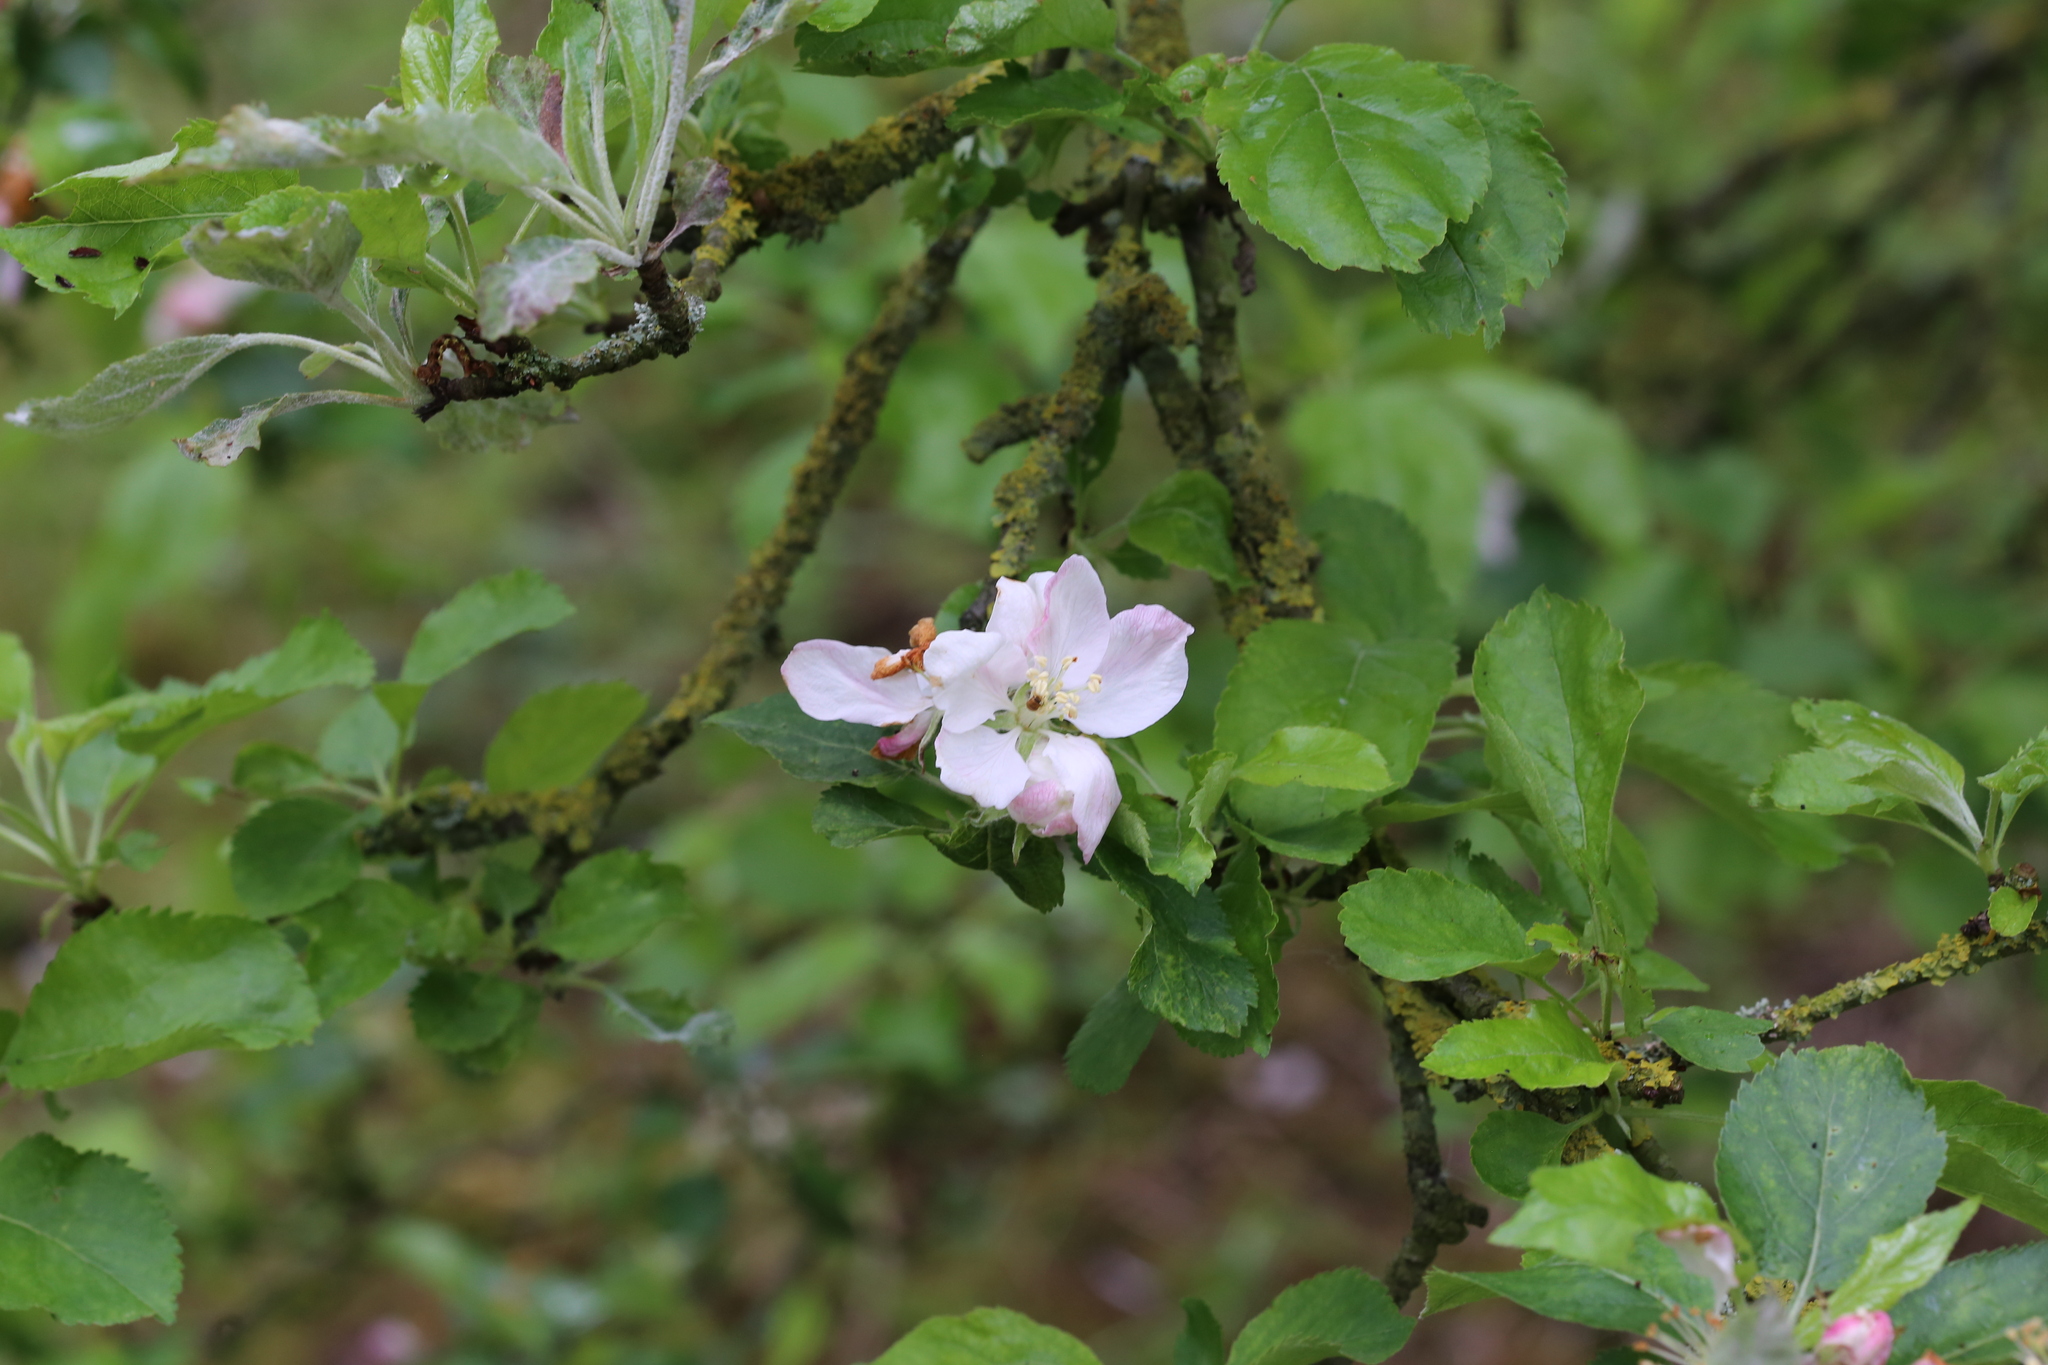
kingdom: Plantae
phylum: Tracheophyta
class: Magnoliopsida
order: Rosales
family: Rosaceae
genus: Malus
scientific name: Malus domestica
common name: Apple
